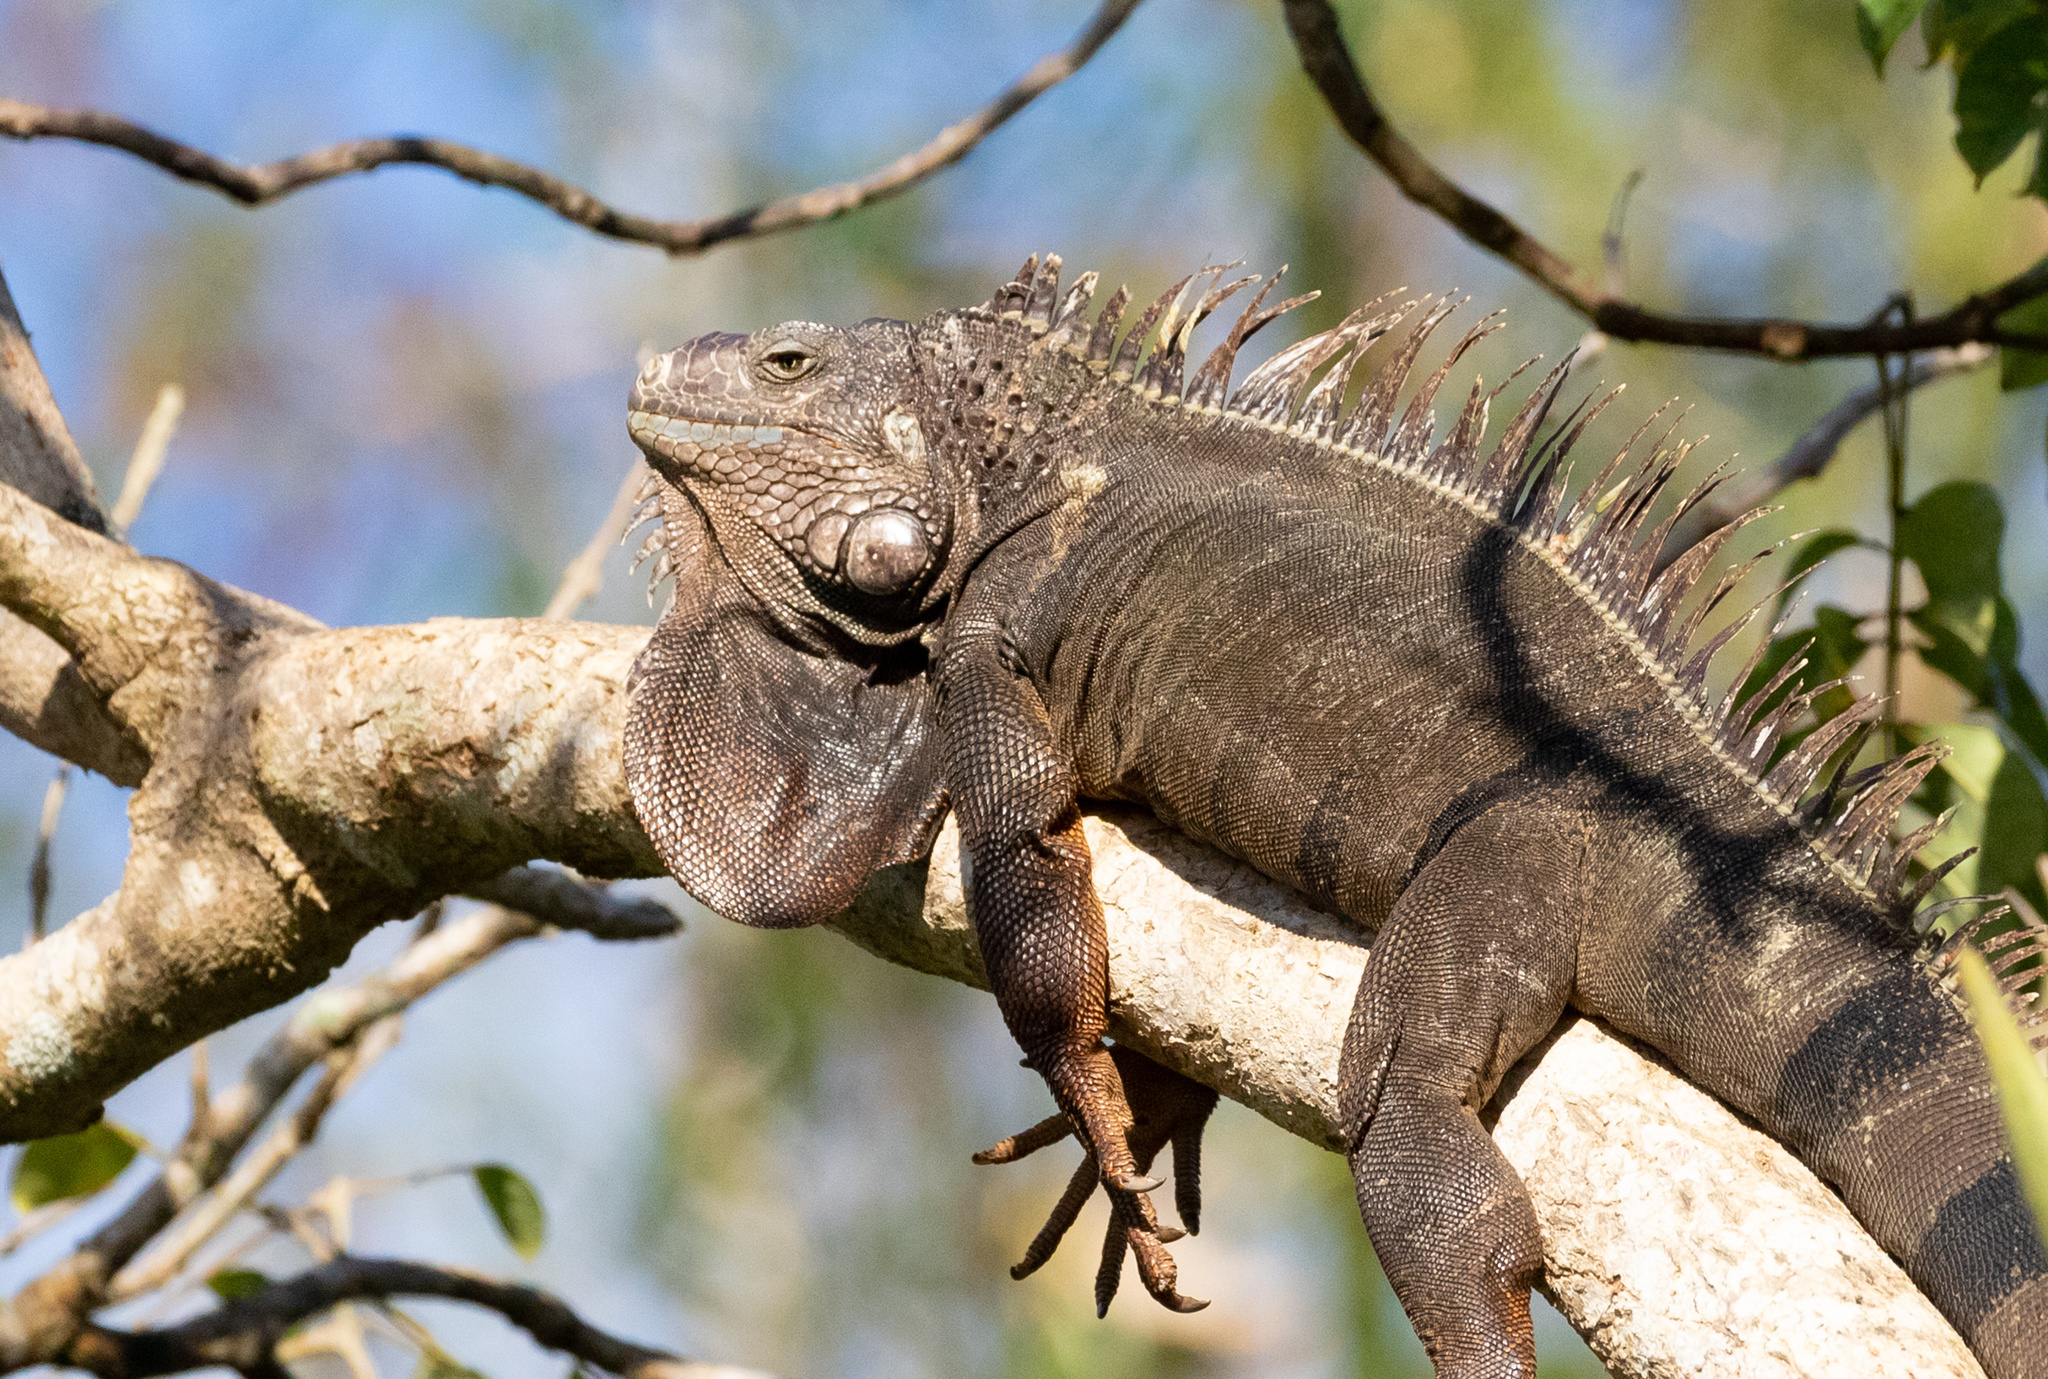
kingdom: Animalia
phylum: Chordata
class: Squamata
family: Iguanidae
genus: Iguana
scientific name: Iguana iguana
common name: Green iguana
